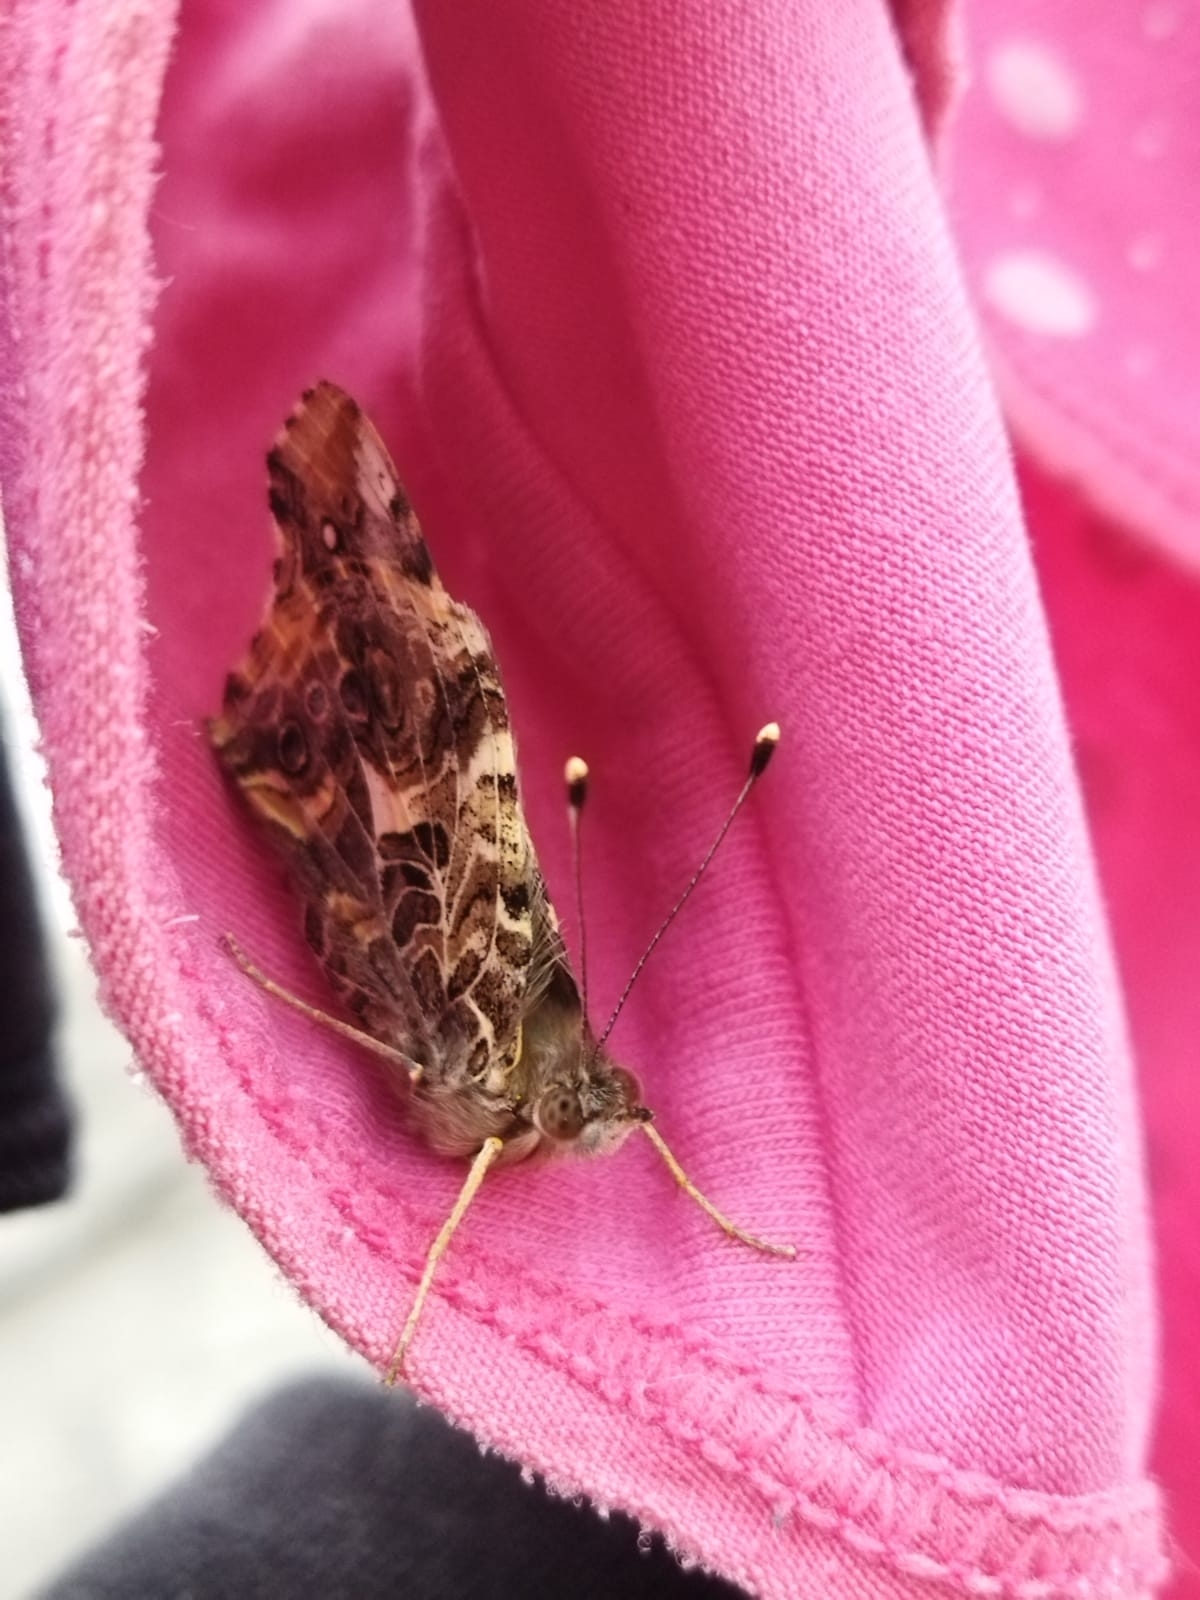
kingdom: Animalia
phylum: Arthropoda
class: Insecta
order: Lepidoptera
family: Nymphalidae
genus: Vanessa
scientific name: Vanessa carye
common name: Subtropical lady
